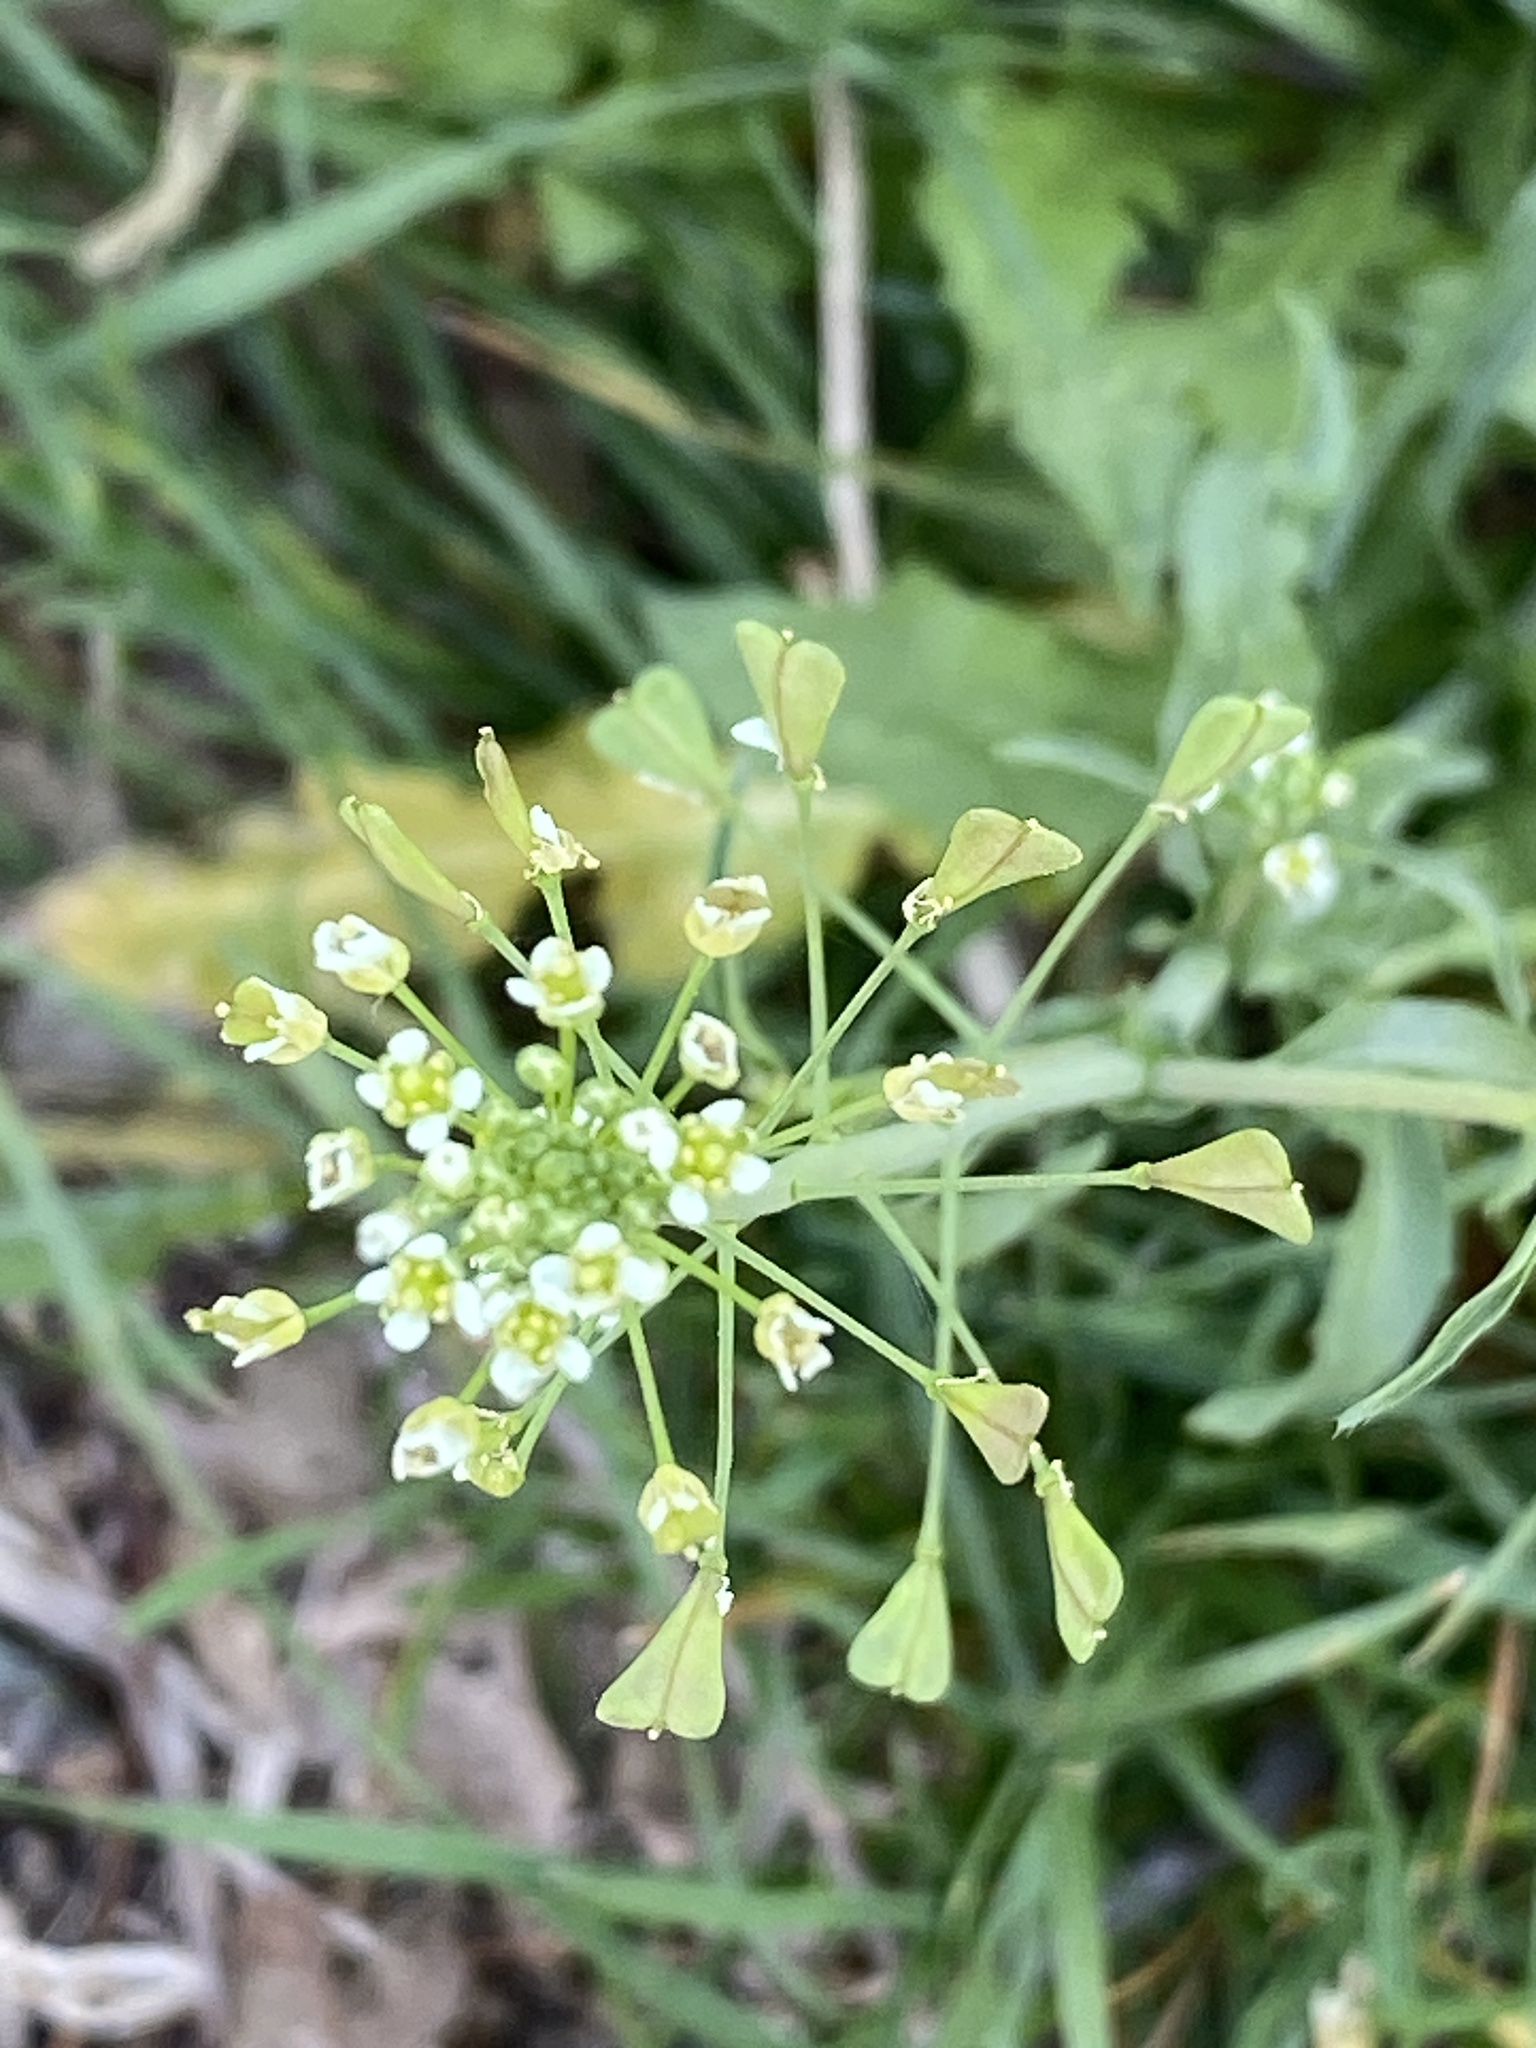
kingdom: Plantae
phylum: Tracheophyta
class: Magnoliopsida
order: Brassicales
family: Brassicaceae
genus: Capsella
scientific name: Capsella bursa-pastoris
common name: Shepherd's purse
